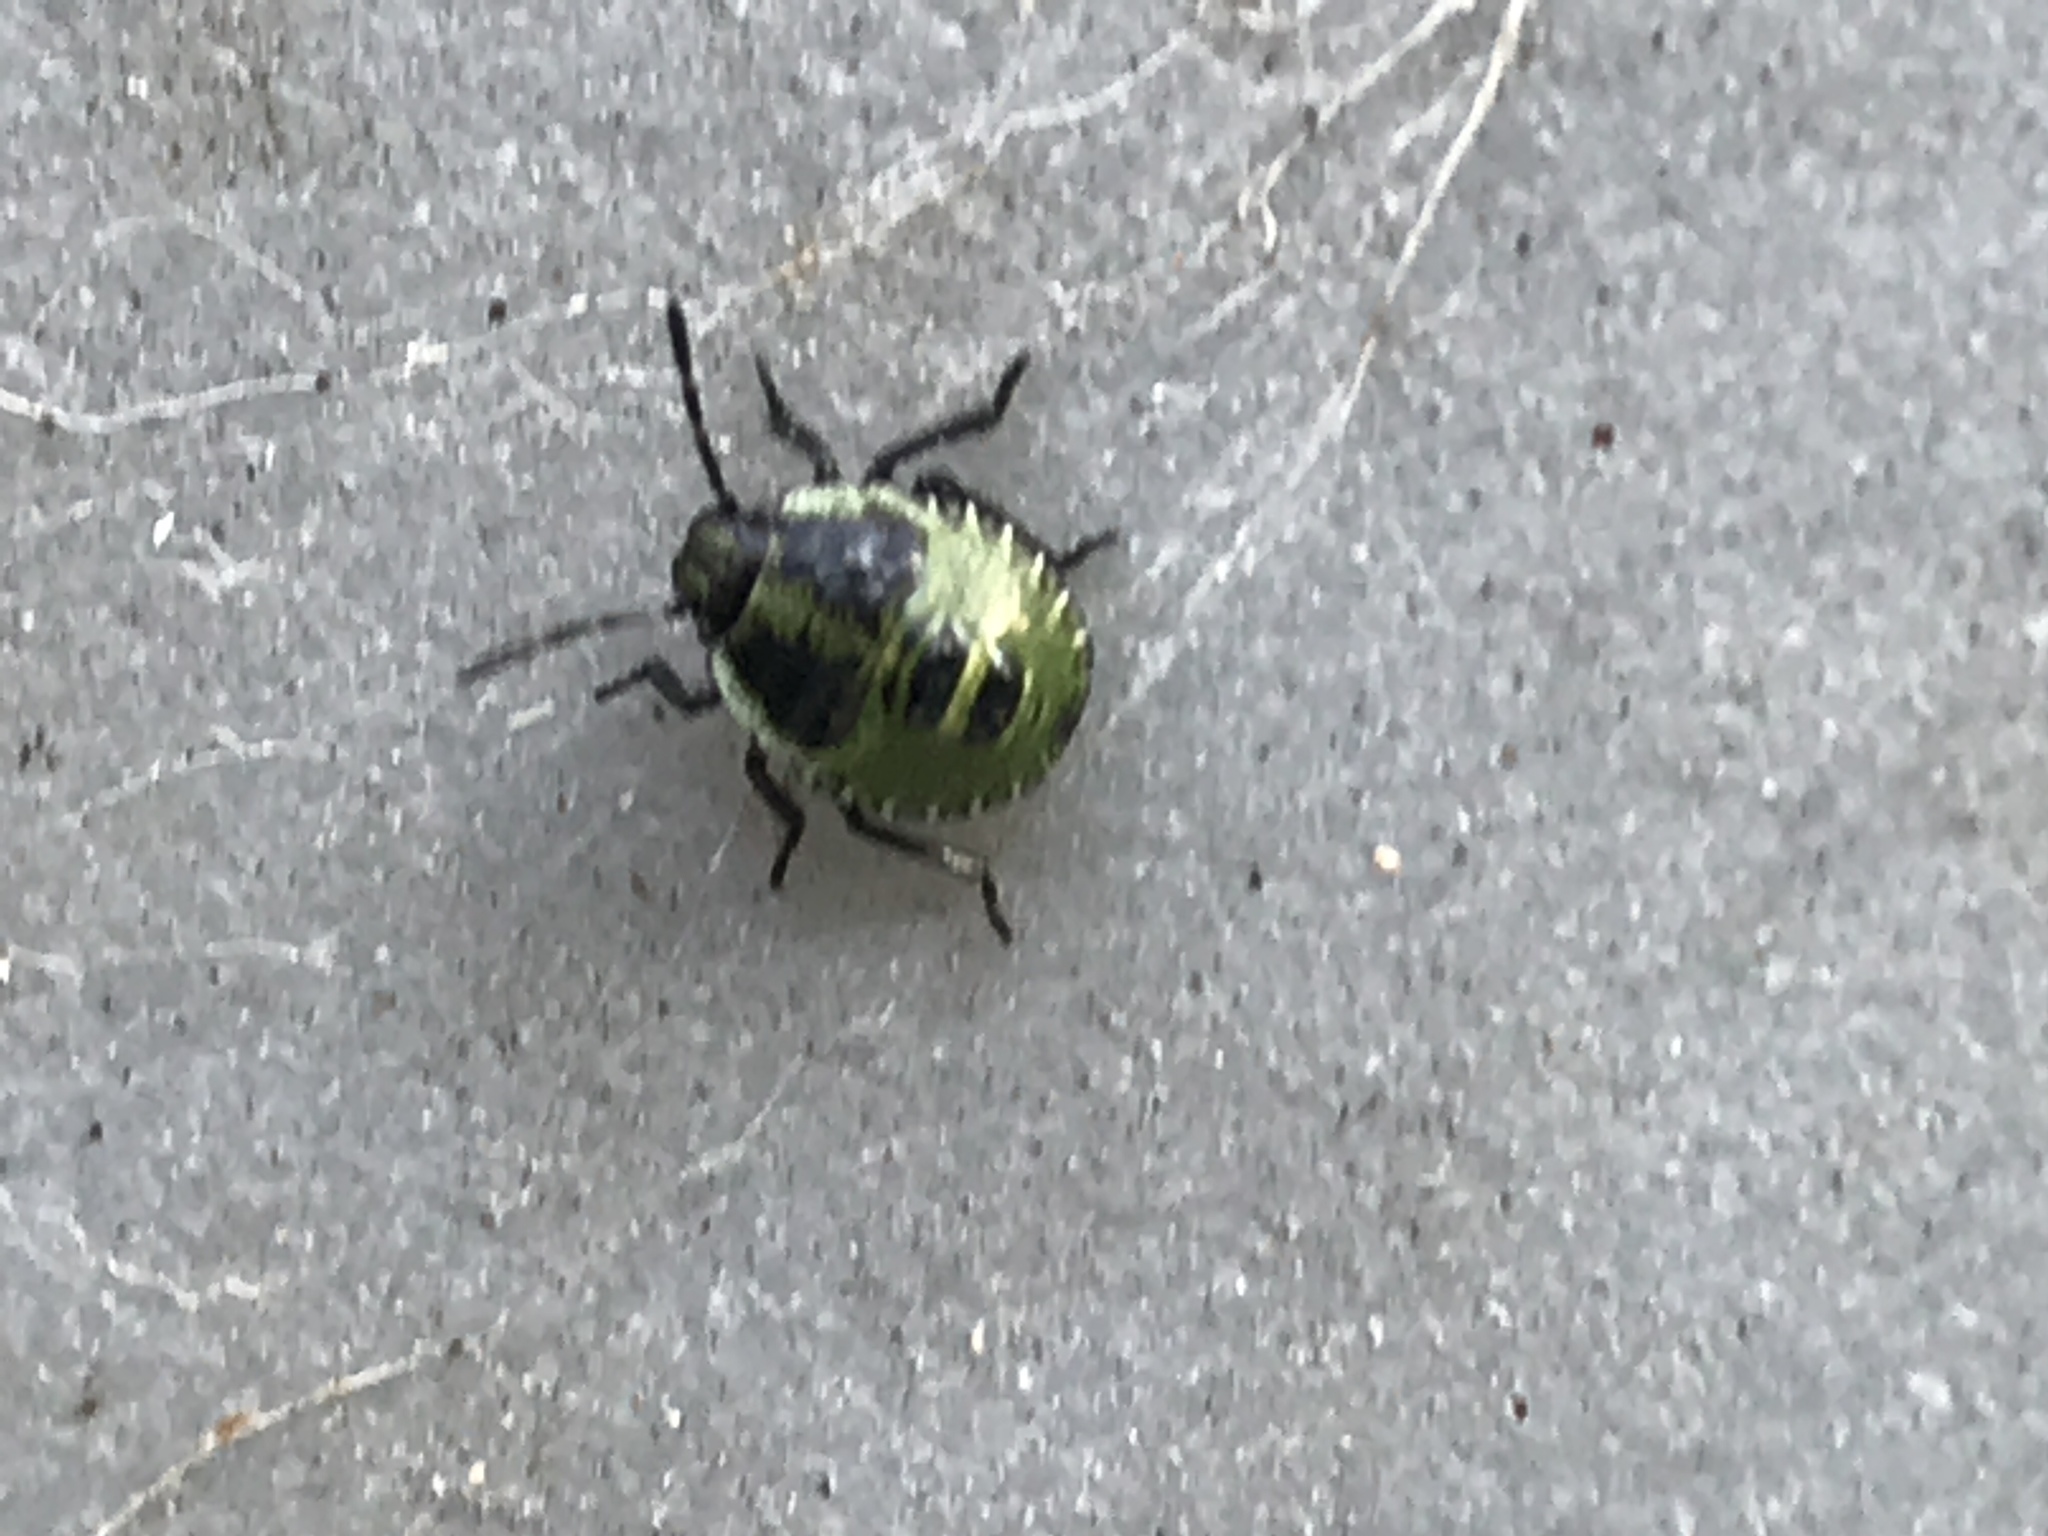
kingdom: Animalia
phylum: Arthropoda
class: Insecta
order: Hemiptera
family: Pentatomidae
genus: Palomena
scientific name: Palomena prasina
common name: Green shieldbug
